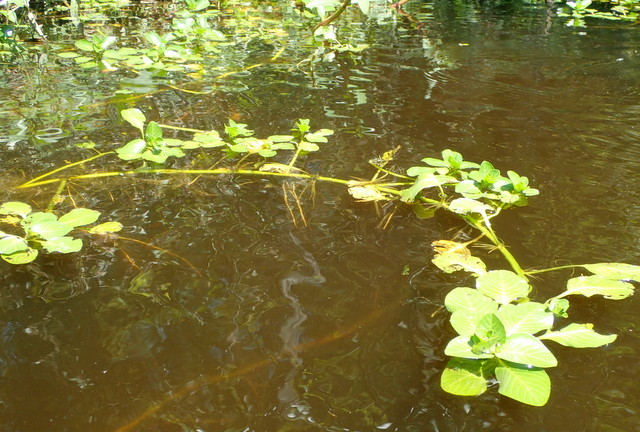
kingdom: Plantae
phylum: Tracheophyta
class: Magnoliopsida
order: Myrtales
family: Onagraceae
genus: Ludwigia
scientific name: Ludwigia peploides
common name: Floating primrose-willow
